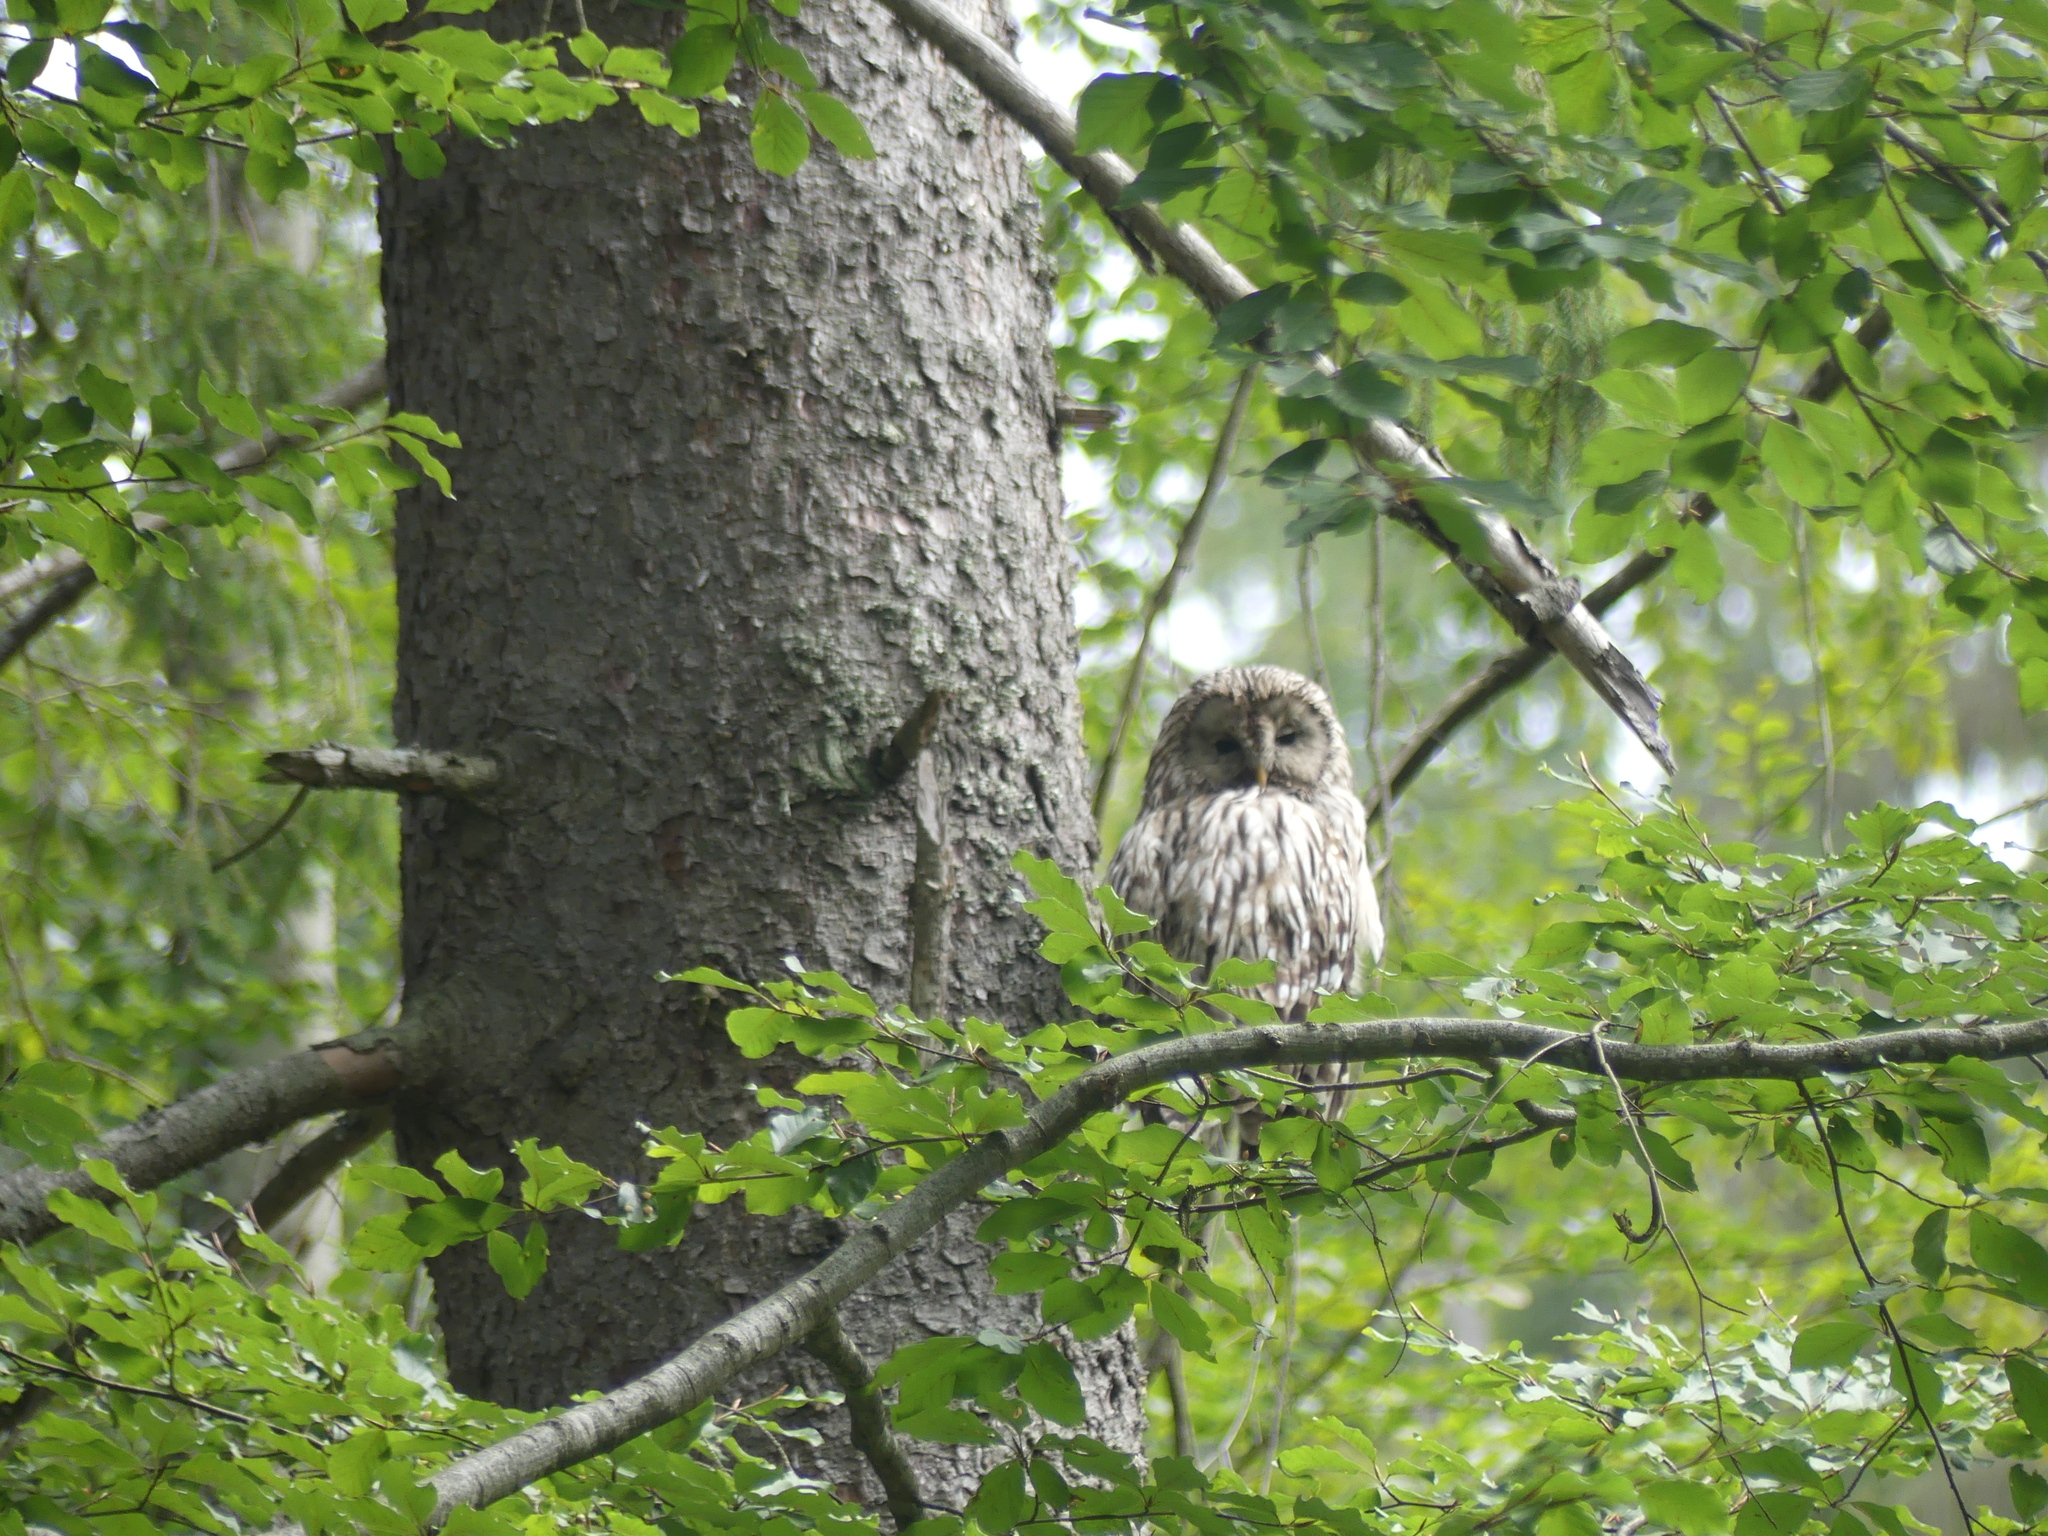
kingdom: Animalia
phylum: Chordata
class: Aves
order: Strigiformes
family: Strigidae
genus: Strix
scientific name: Strix uralensis
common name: Ural owl
